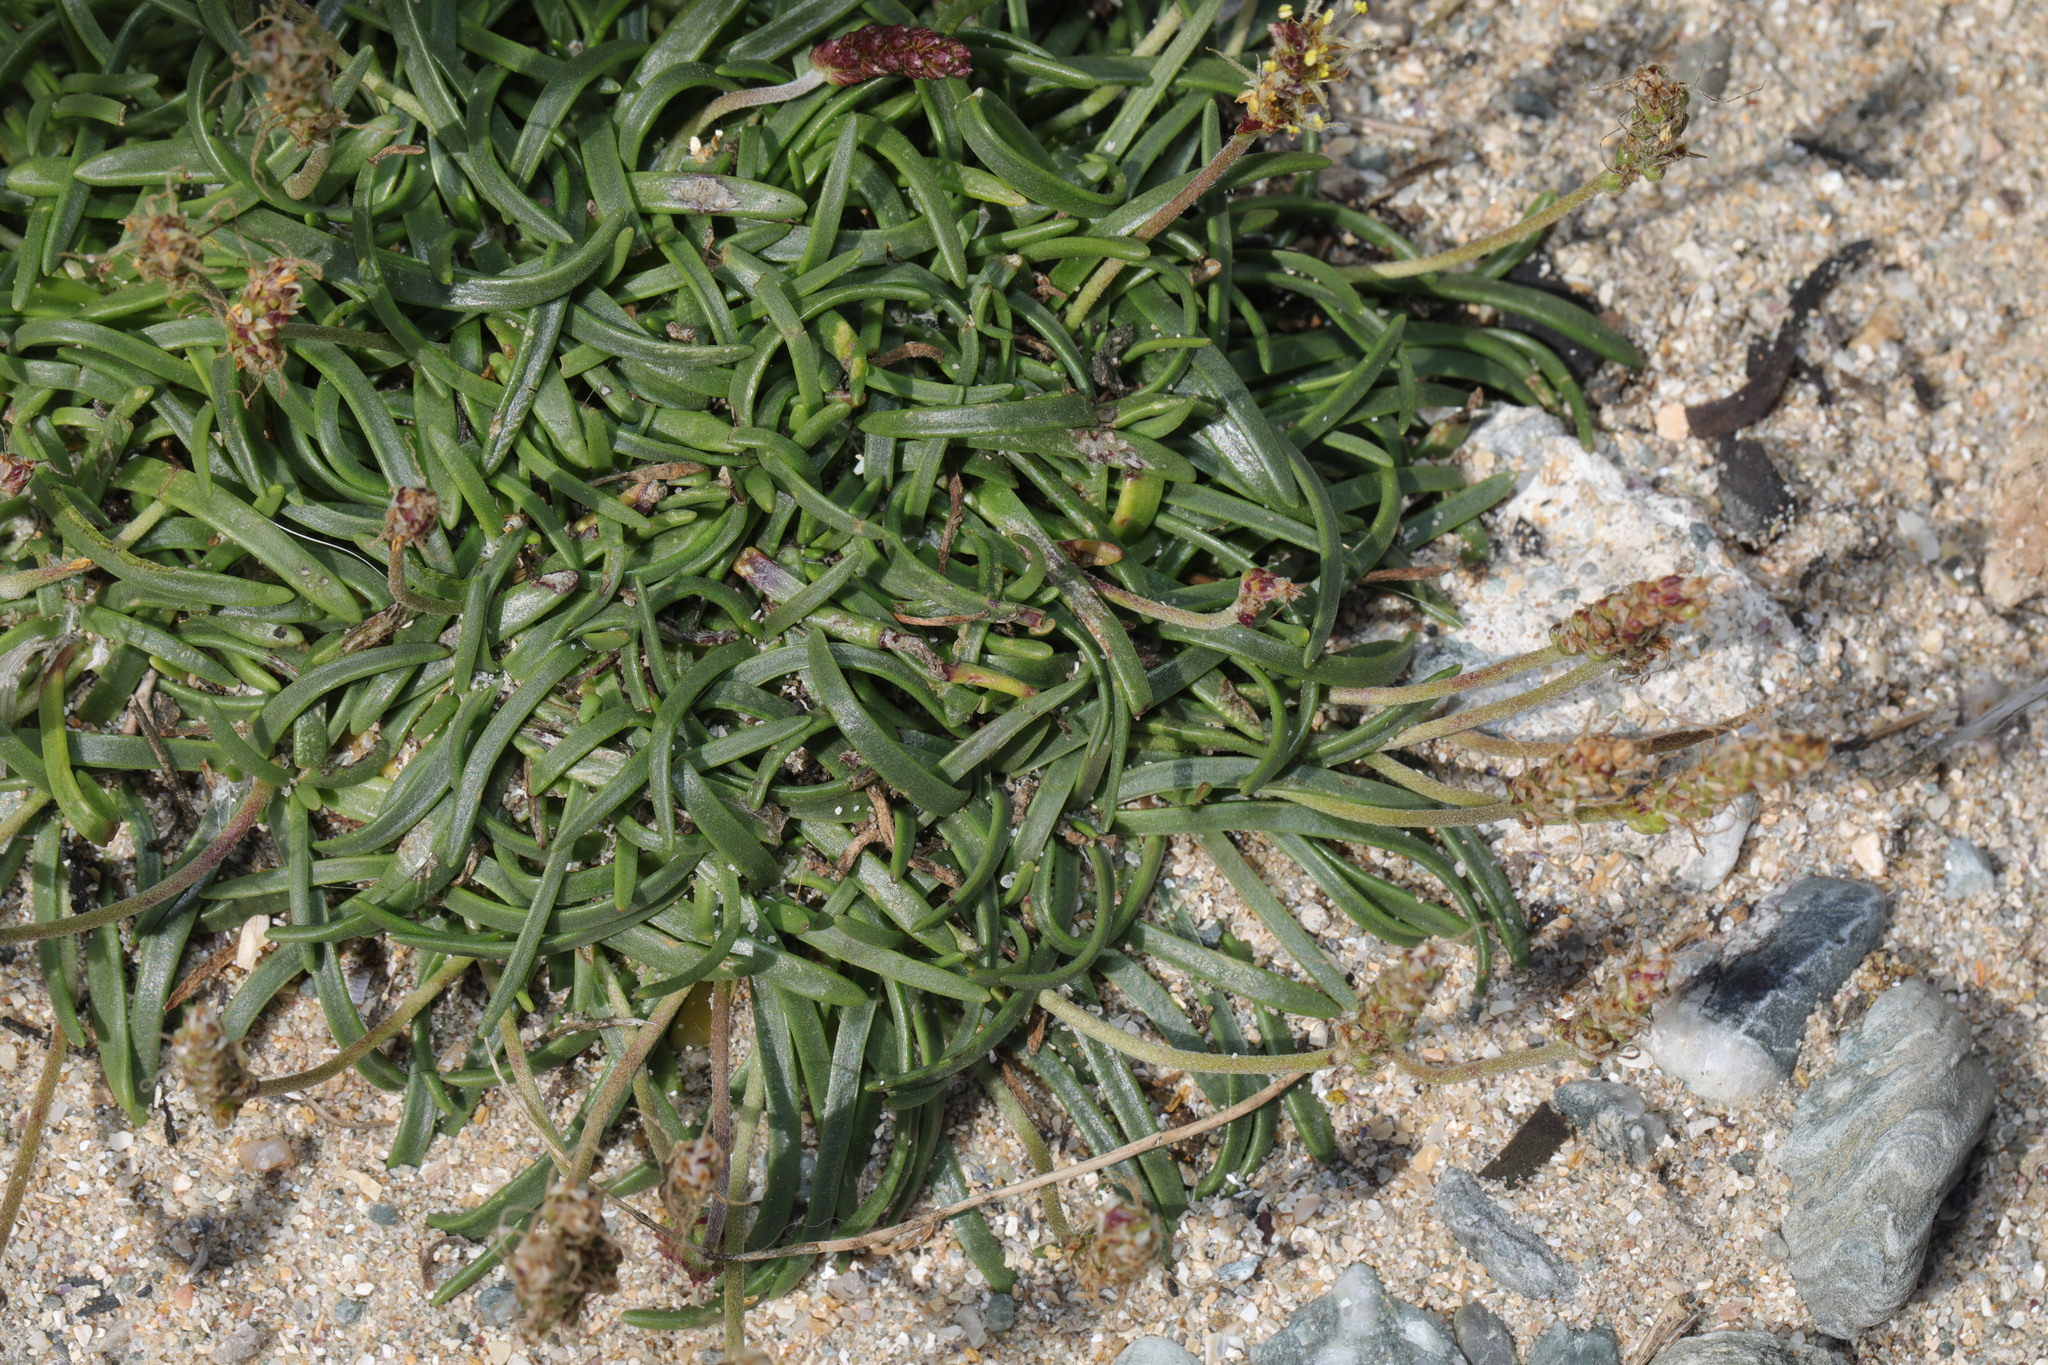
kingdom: Plantae
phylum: Tracheophyta
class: Magnoliopsida
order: Lamiales
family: Plantaginaceae
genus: Plantago
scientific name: Plantago maritima
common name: Sea plantain
